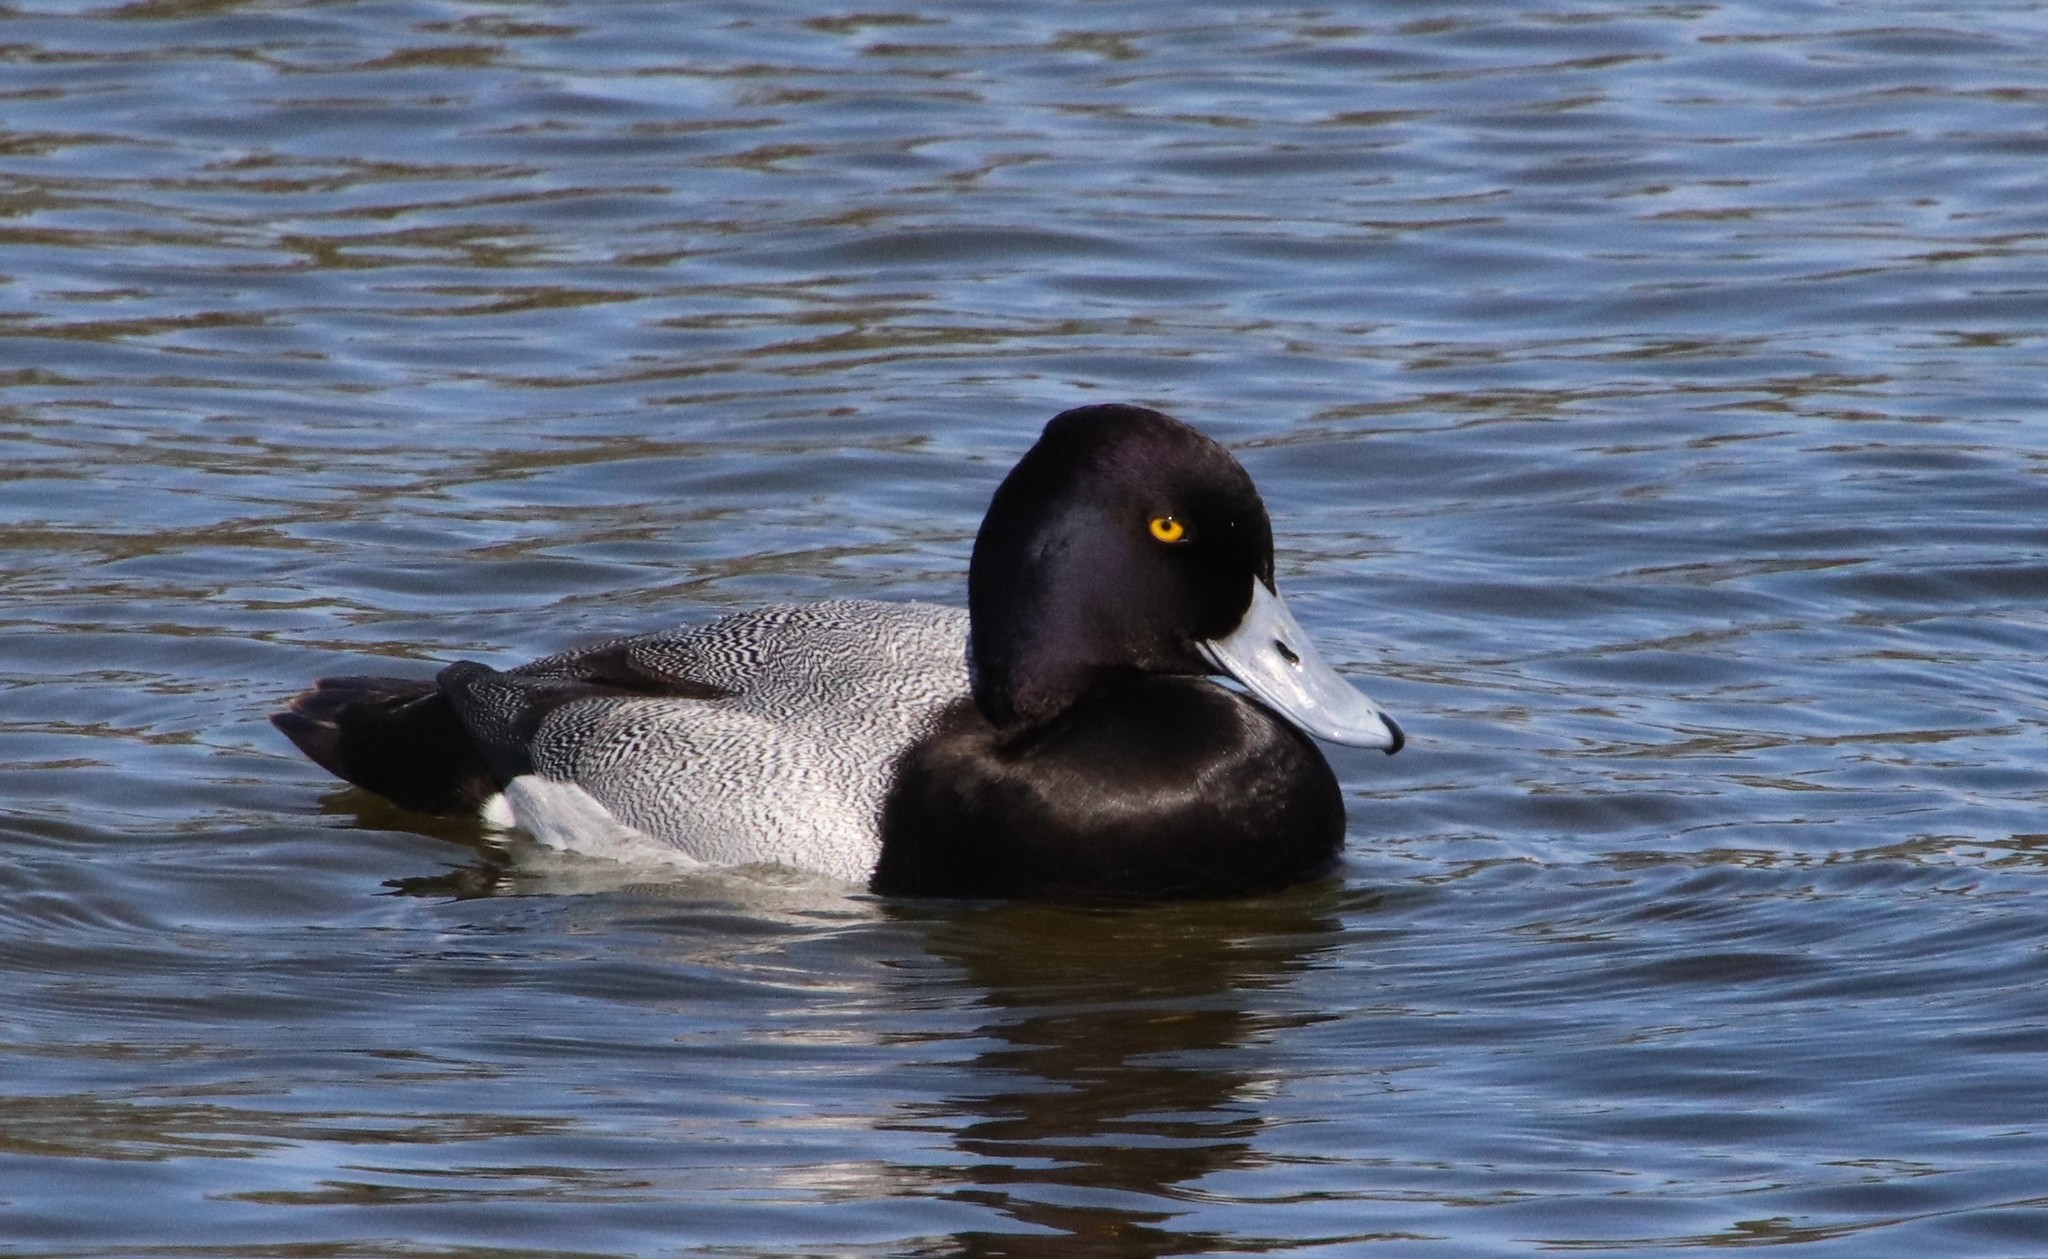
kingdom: Animalia
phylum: Chordata
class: Aves
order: Anseriformes
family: Anatidae
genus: Aythya
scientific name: Aythya affinis
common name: Lesser scaup
